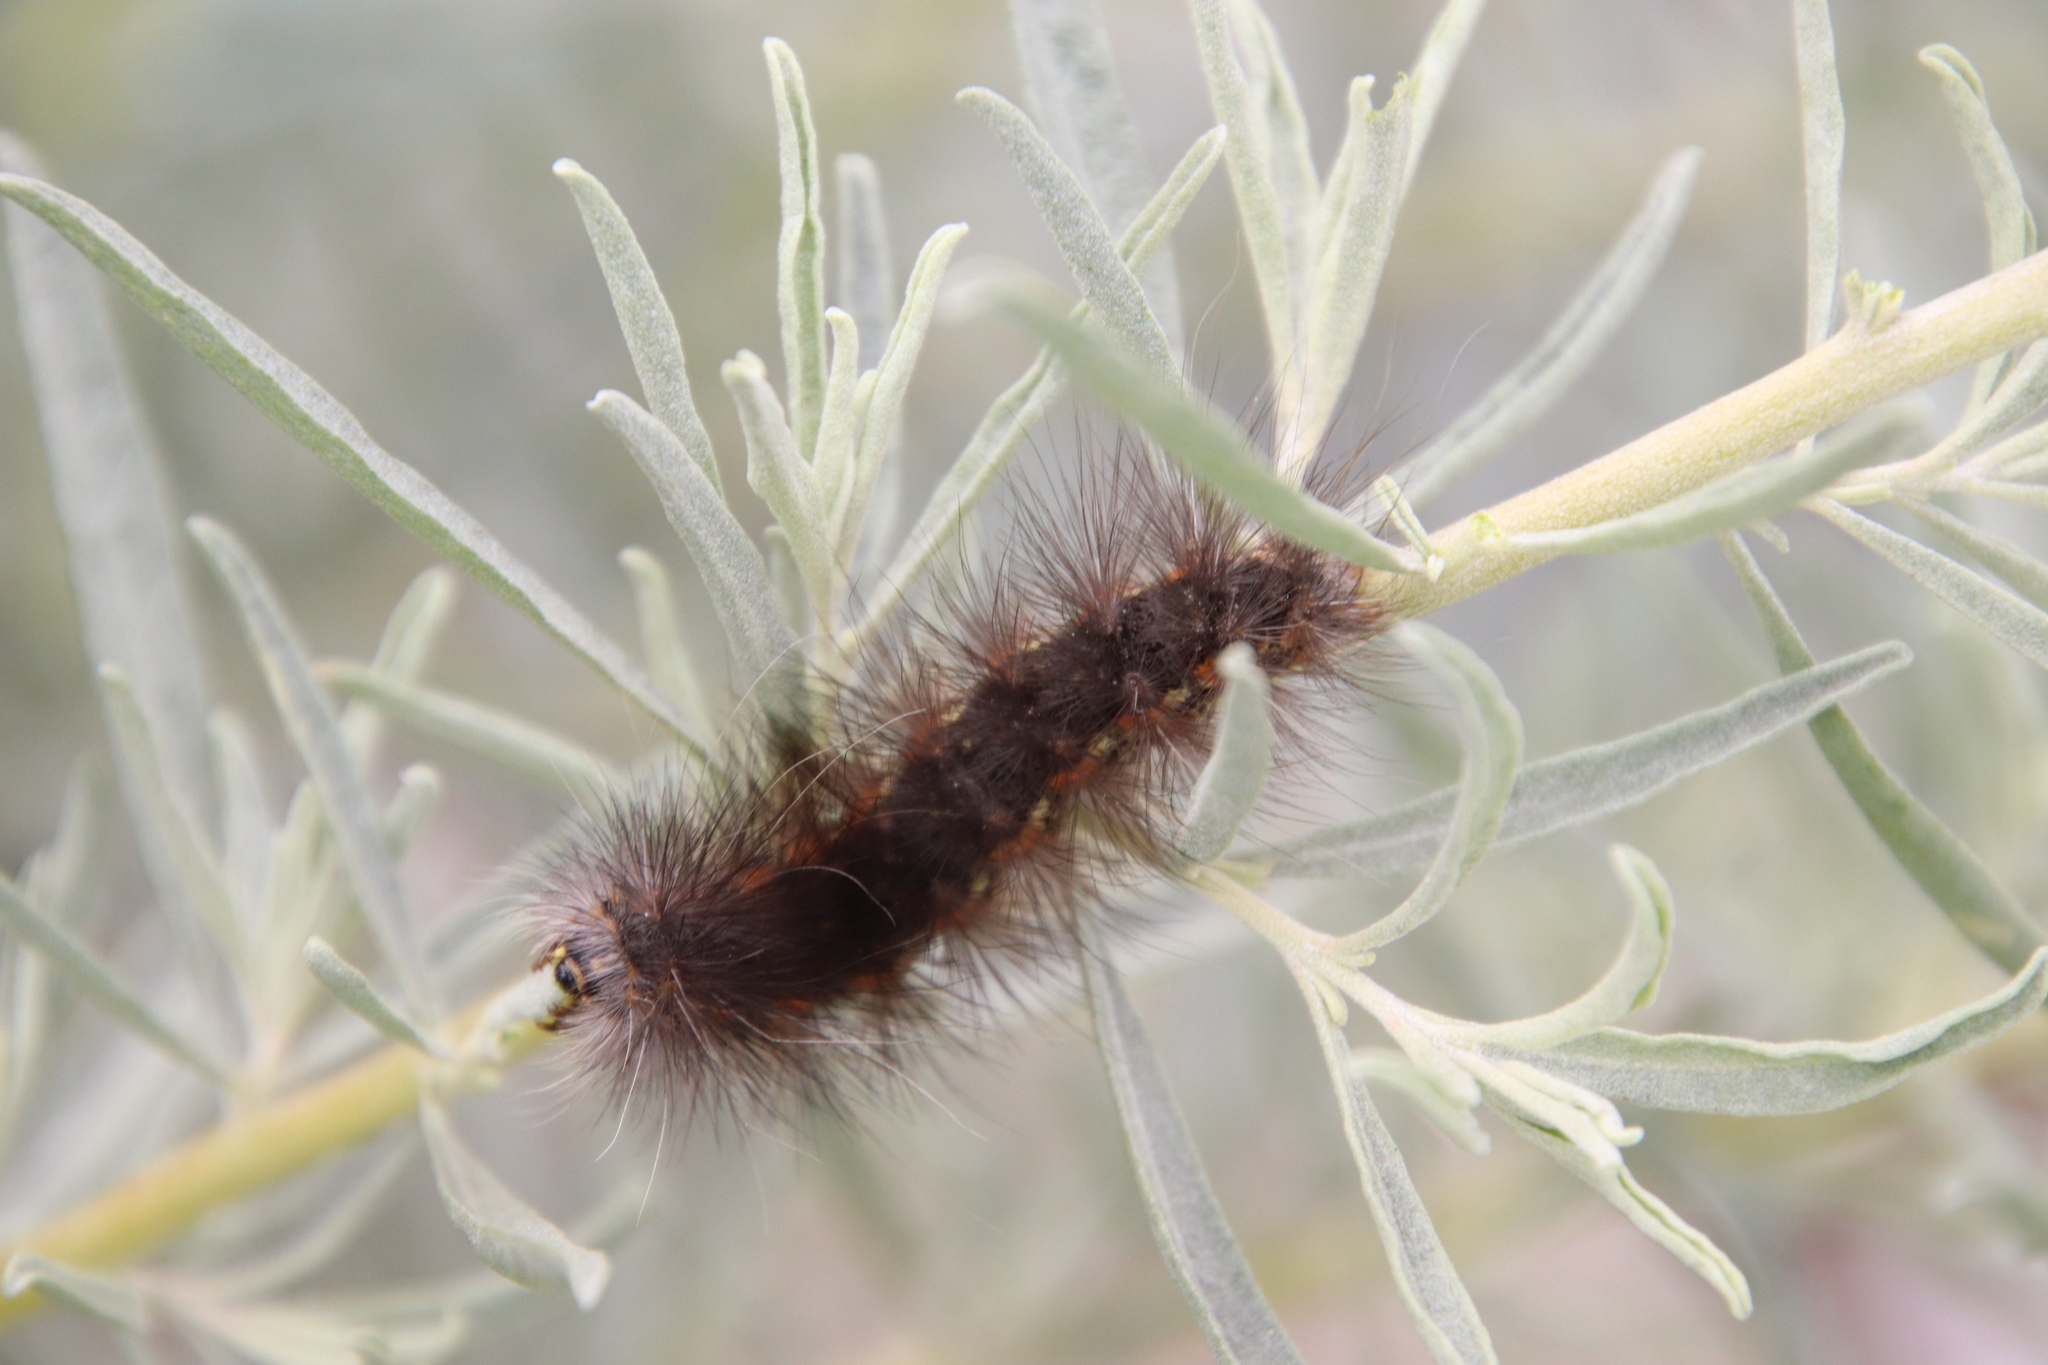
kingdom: Animalia
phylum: Arthropoda
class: Insecta
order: Lepidoptera
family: Erebidae
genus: Estigmene
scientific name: Estigmene acrea
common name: Salt marsh moth
